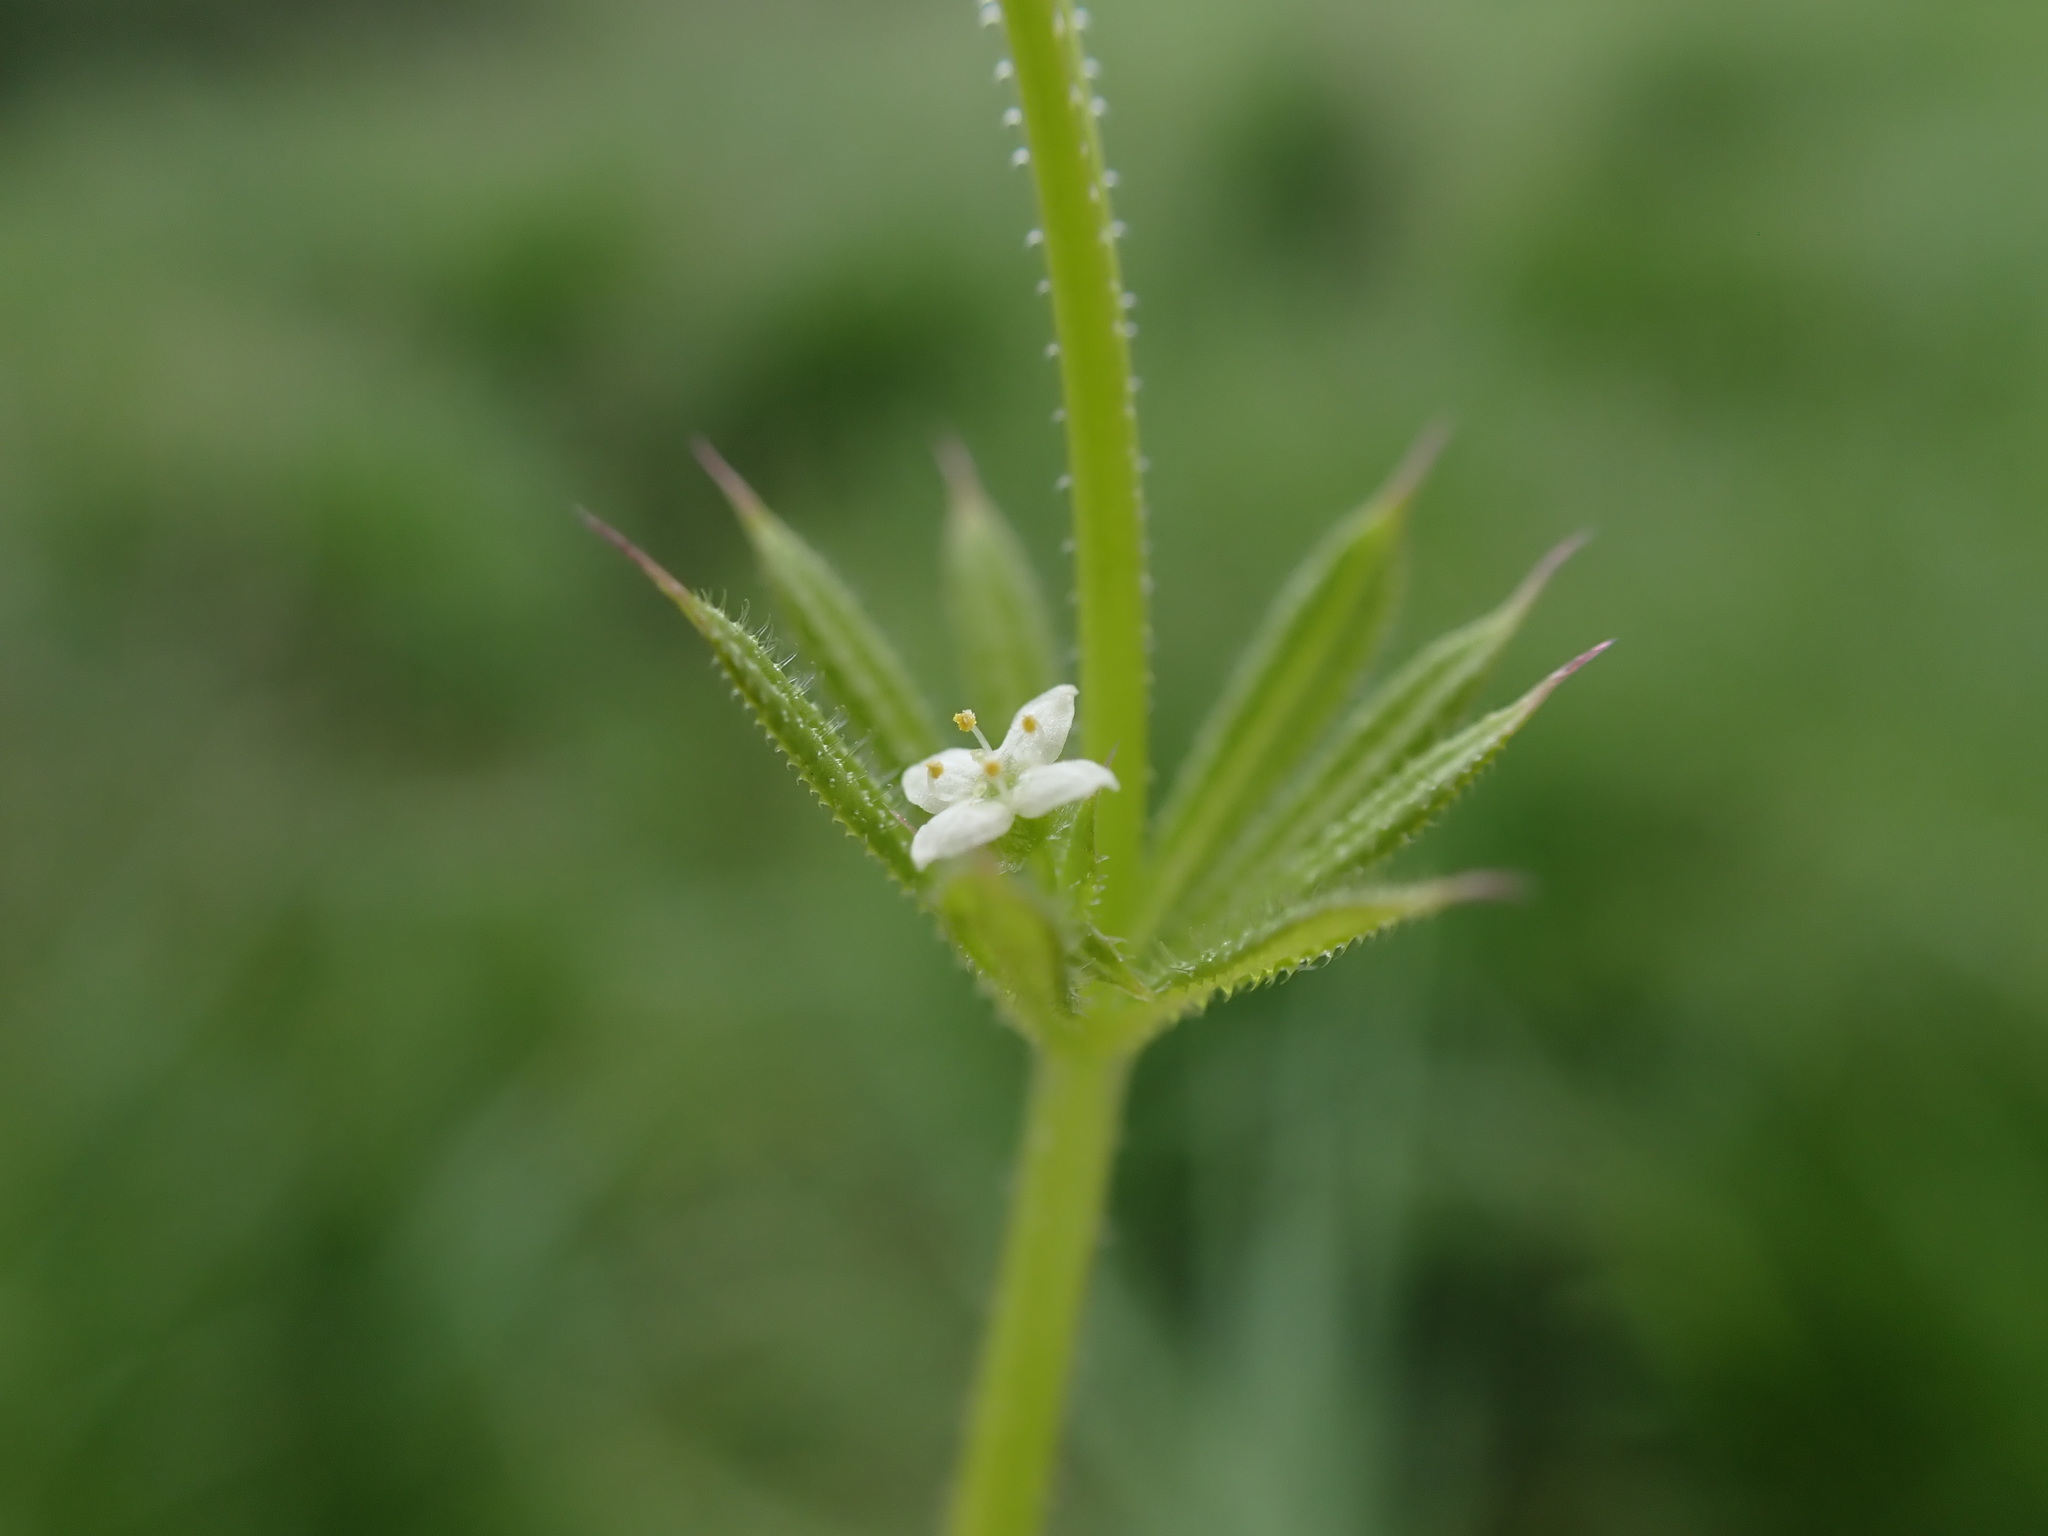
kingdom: Plantae
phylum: Tracheophyta
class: Magnoliopsida
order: Gentianales
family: Rubiaceae
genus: Galium
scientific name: Galium aparine
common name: Cleavers
